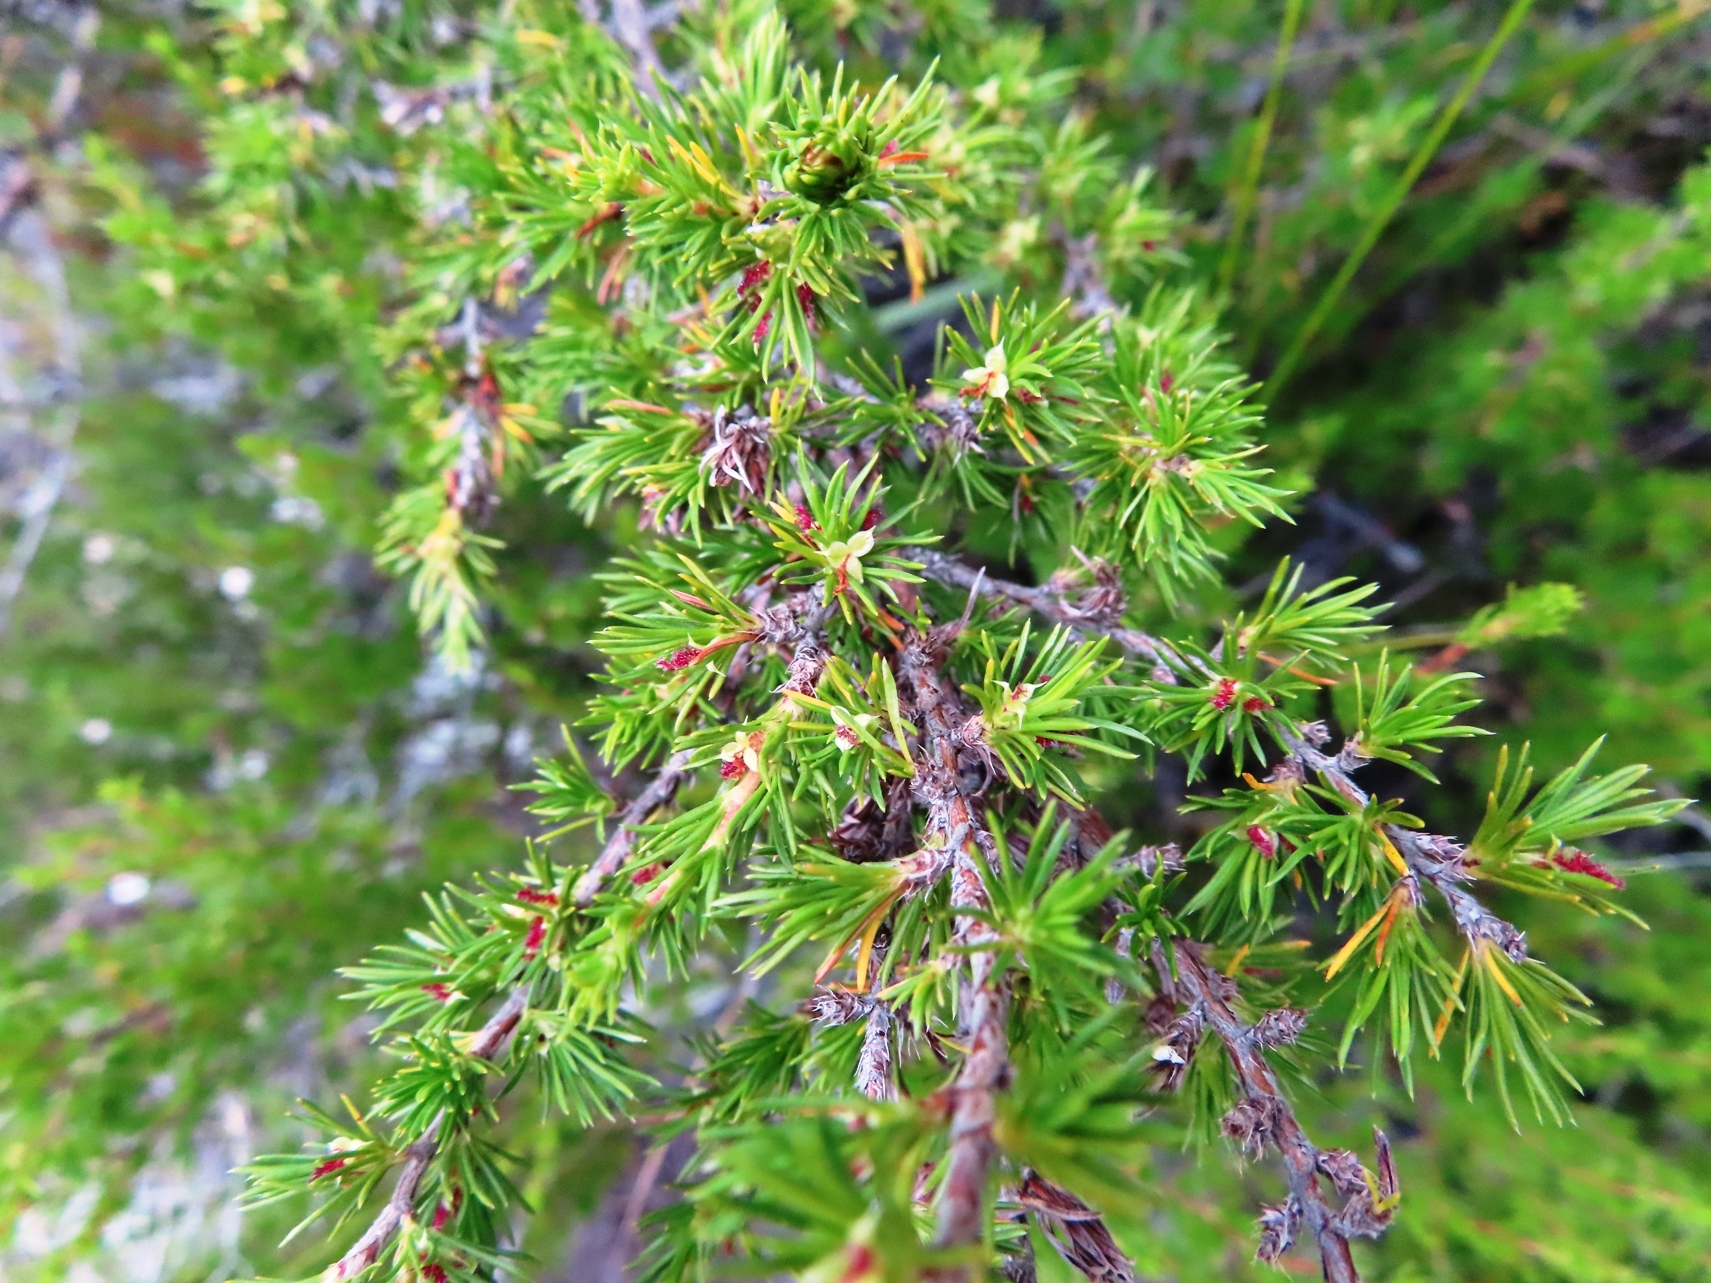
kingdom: Plantae
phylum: Tracheophyta
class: Magnoliopsida
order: Rosales
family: Rosaceae
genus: Cliffortia
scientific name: Cliffortia tuberculata
